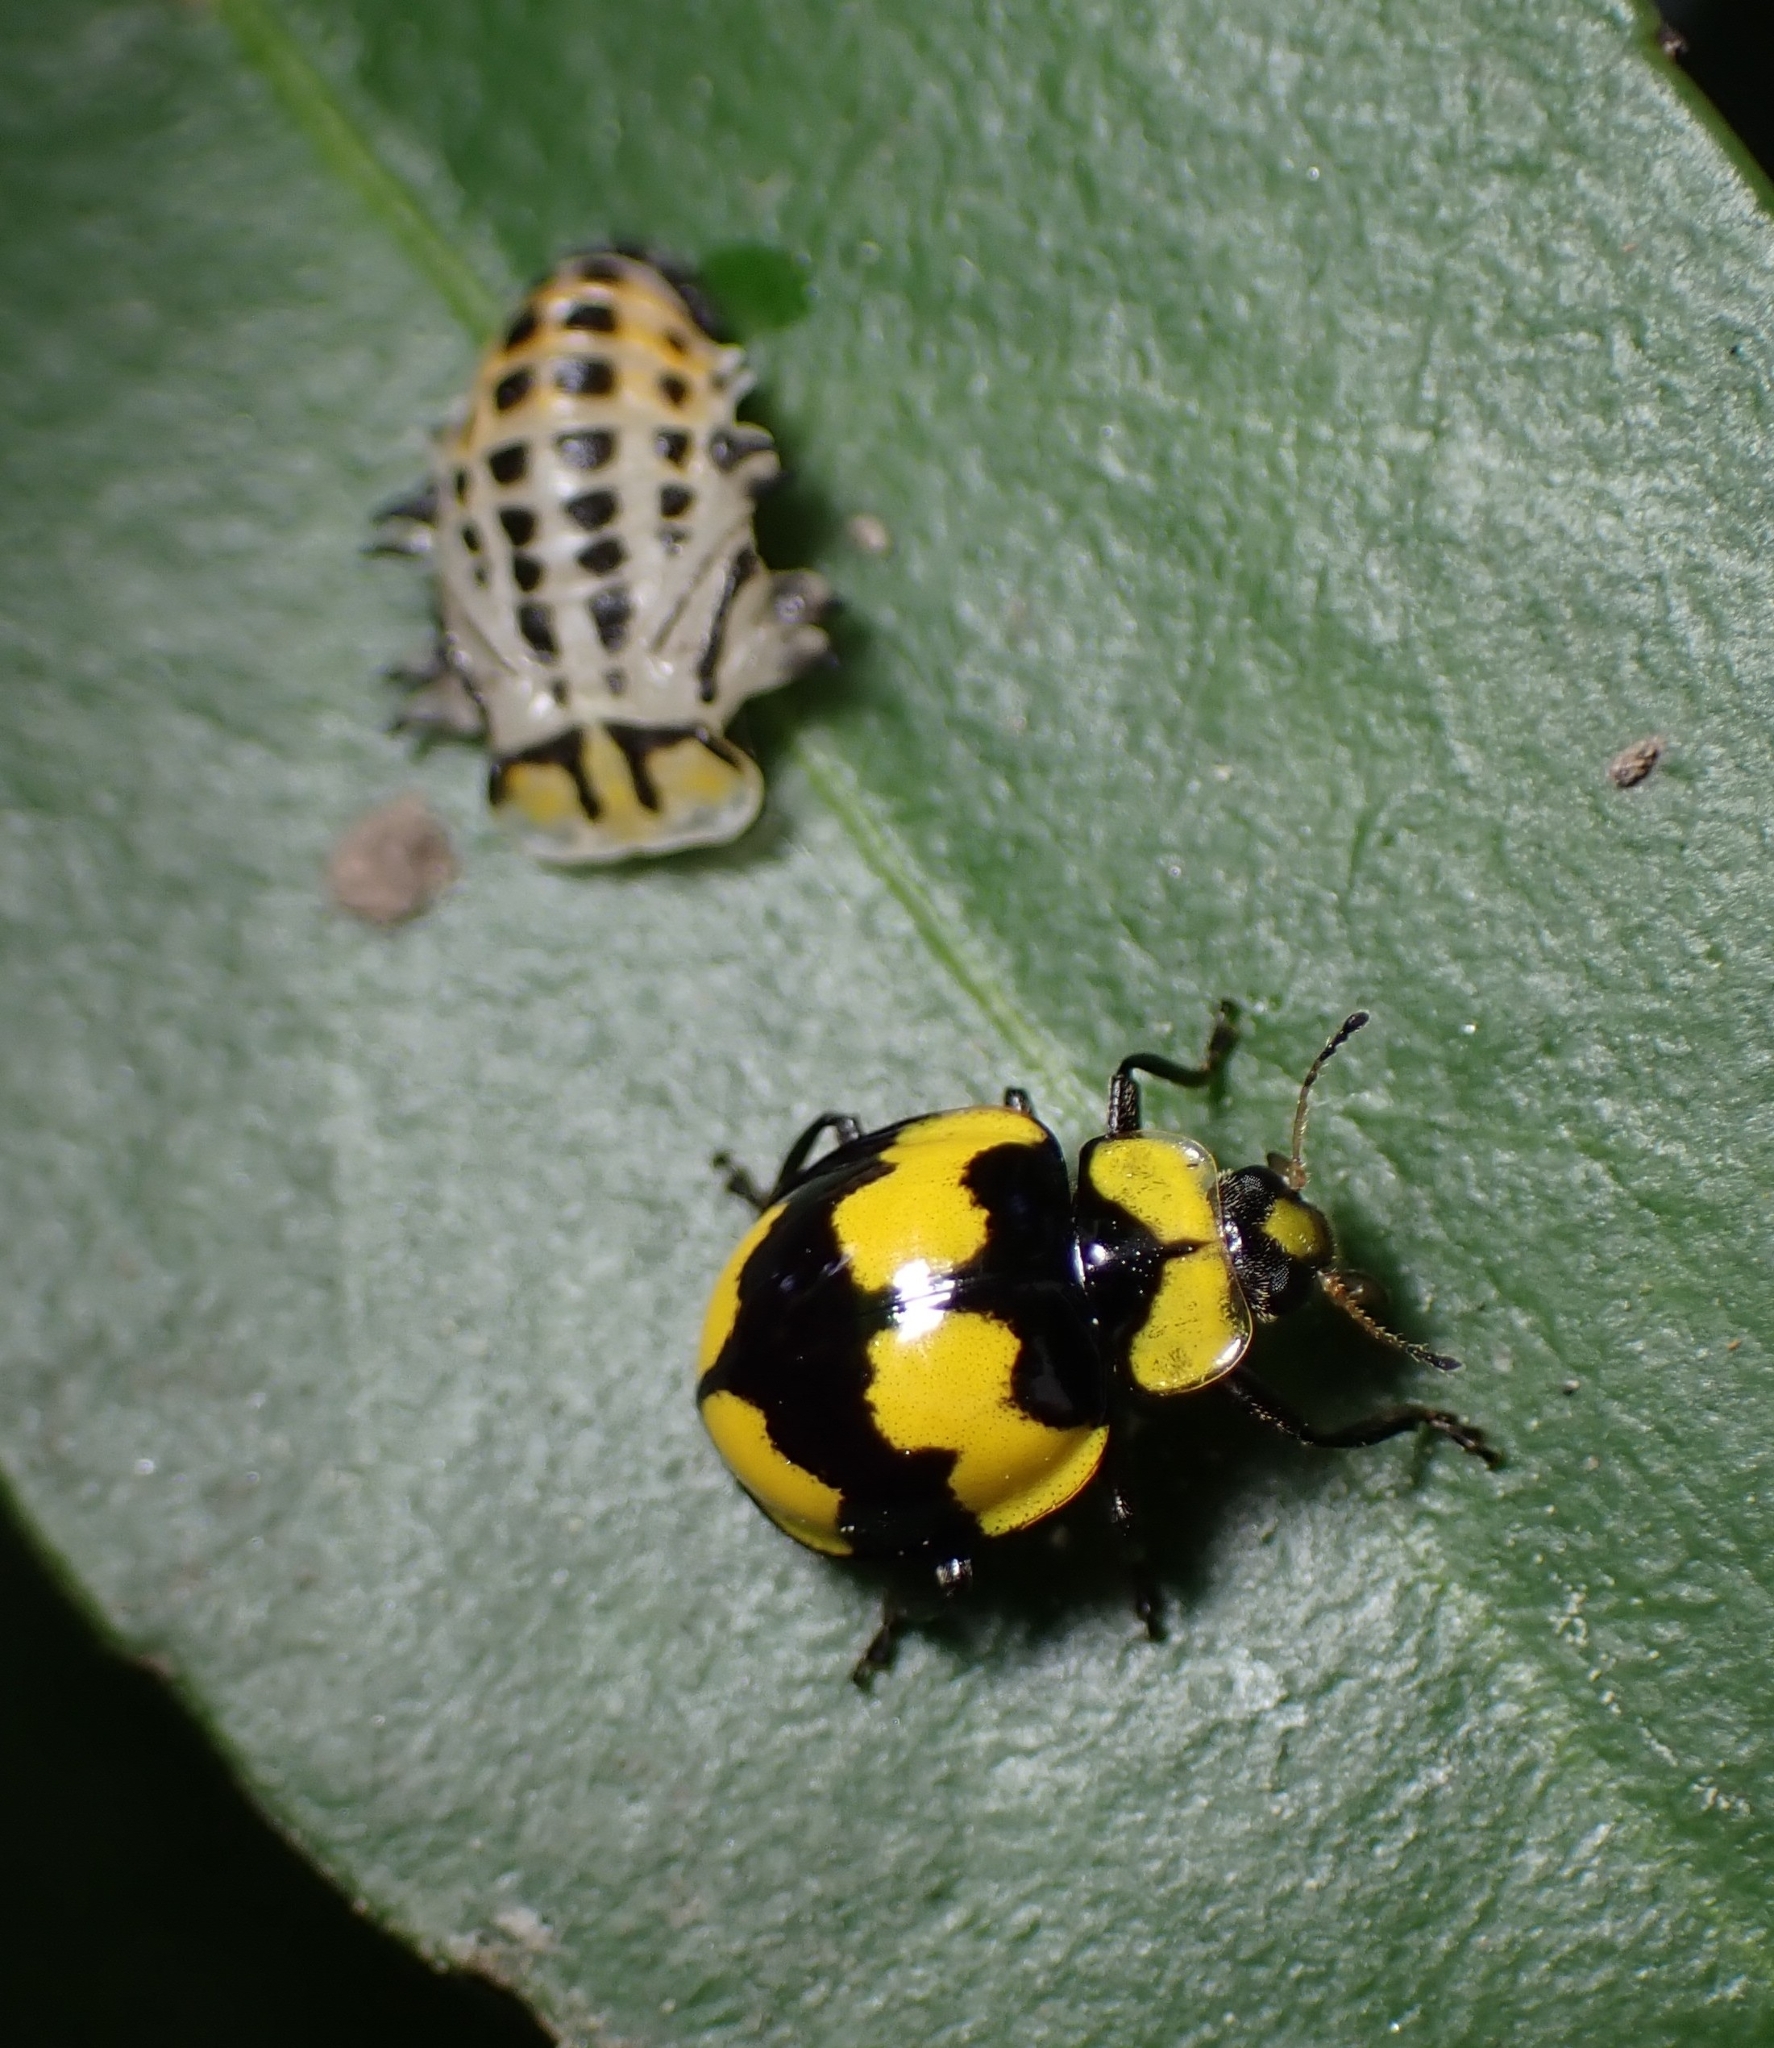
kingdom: Animalia
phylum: Arthropoda
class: Insecta
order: Coleoptera
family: Coccinellidae
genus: Illeis
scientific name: Illeis galbula
